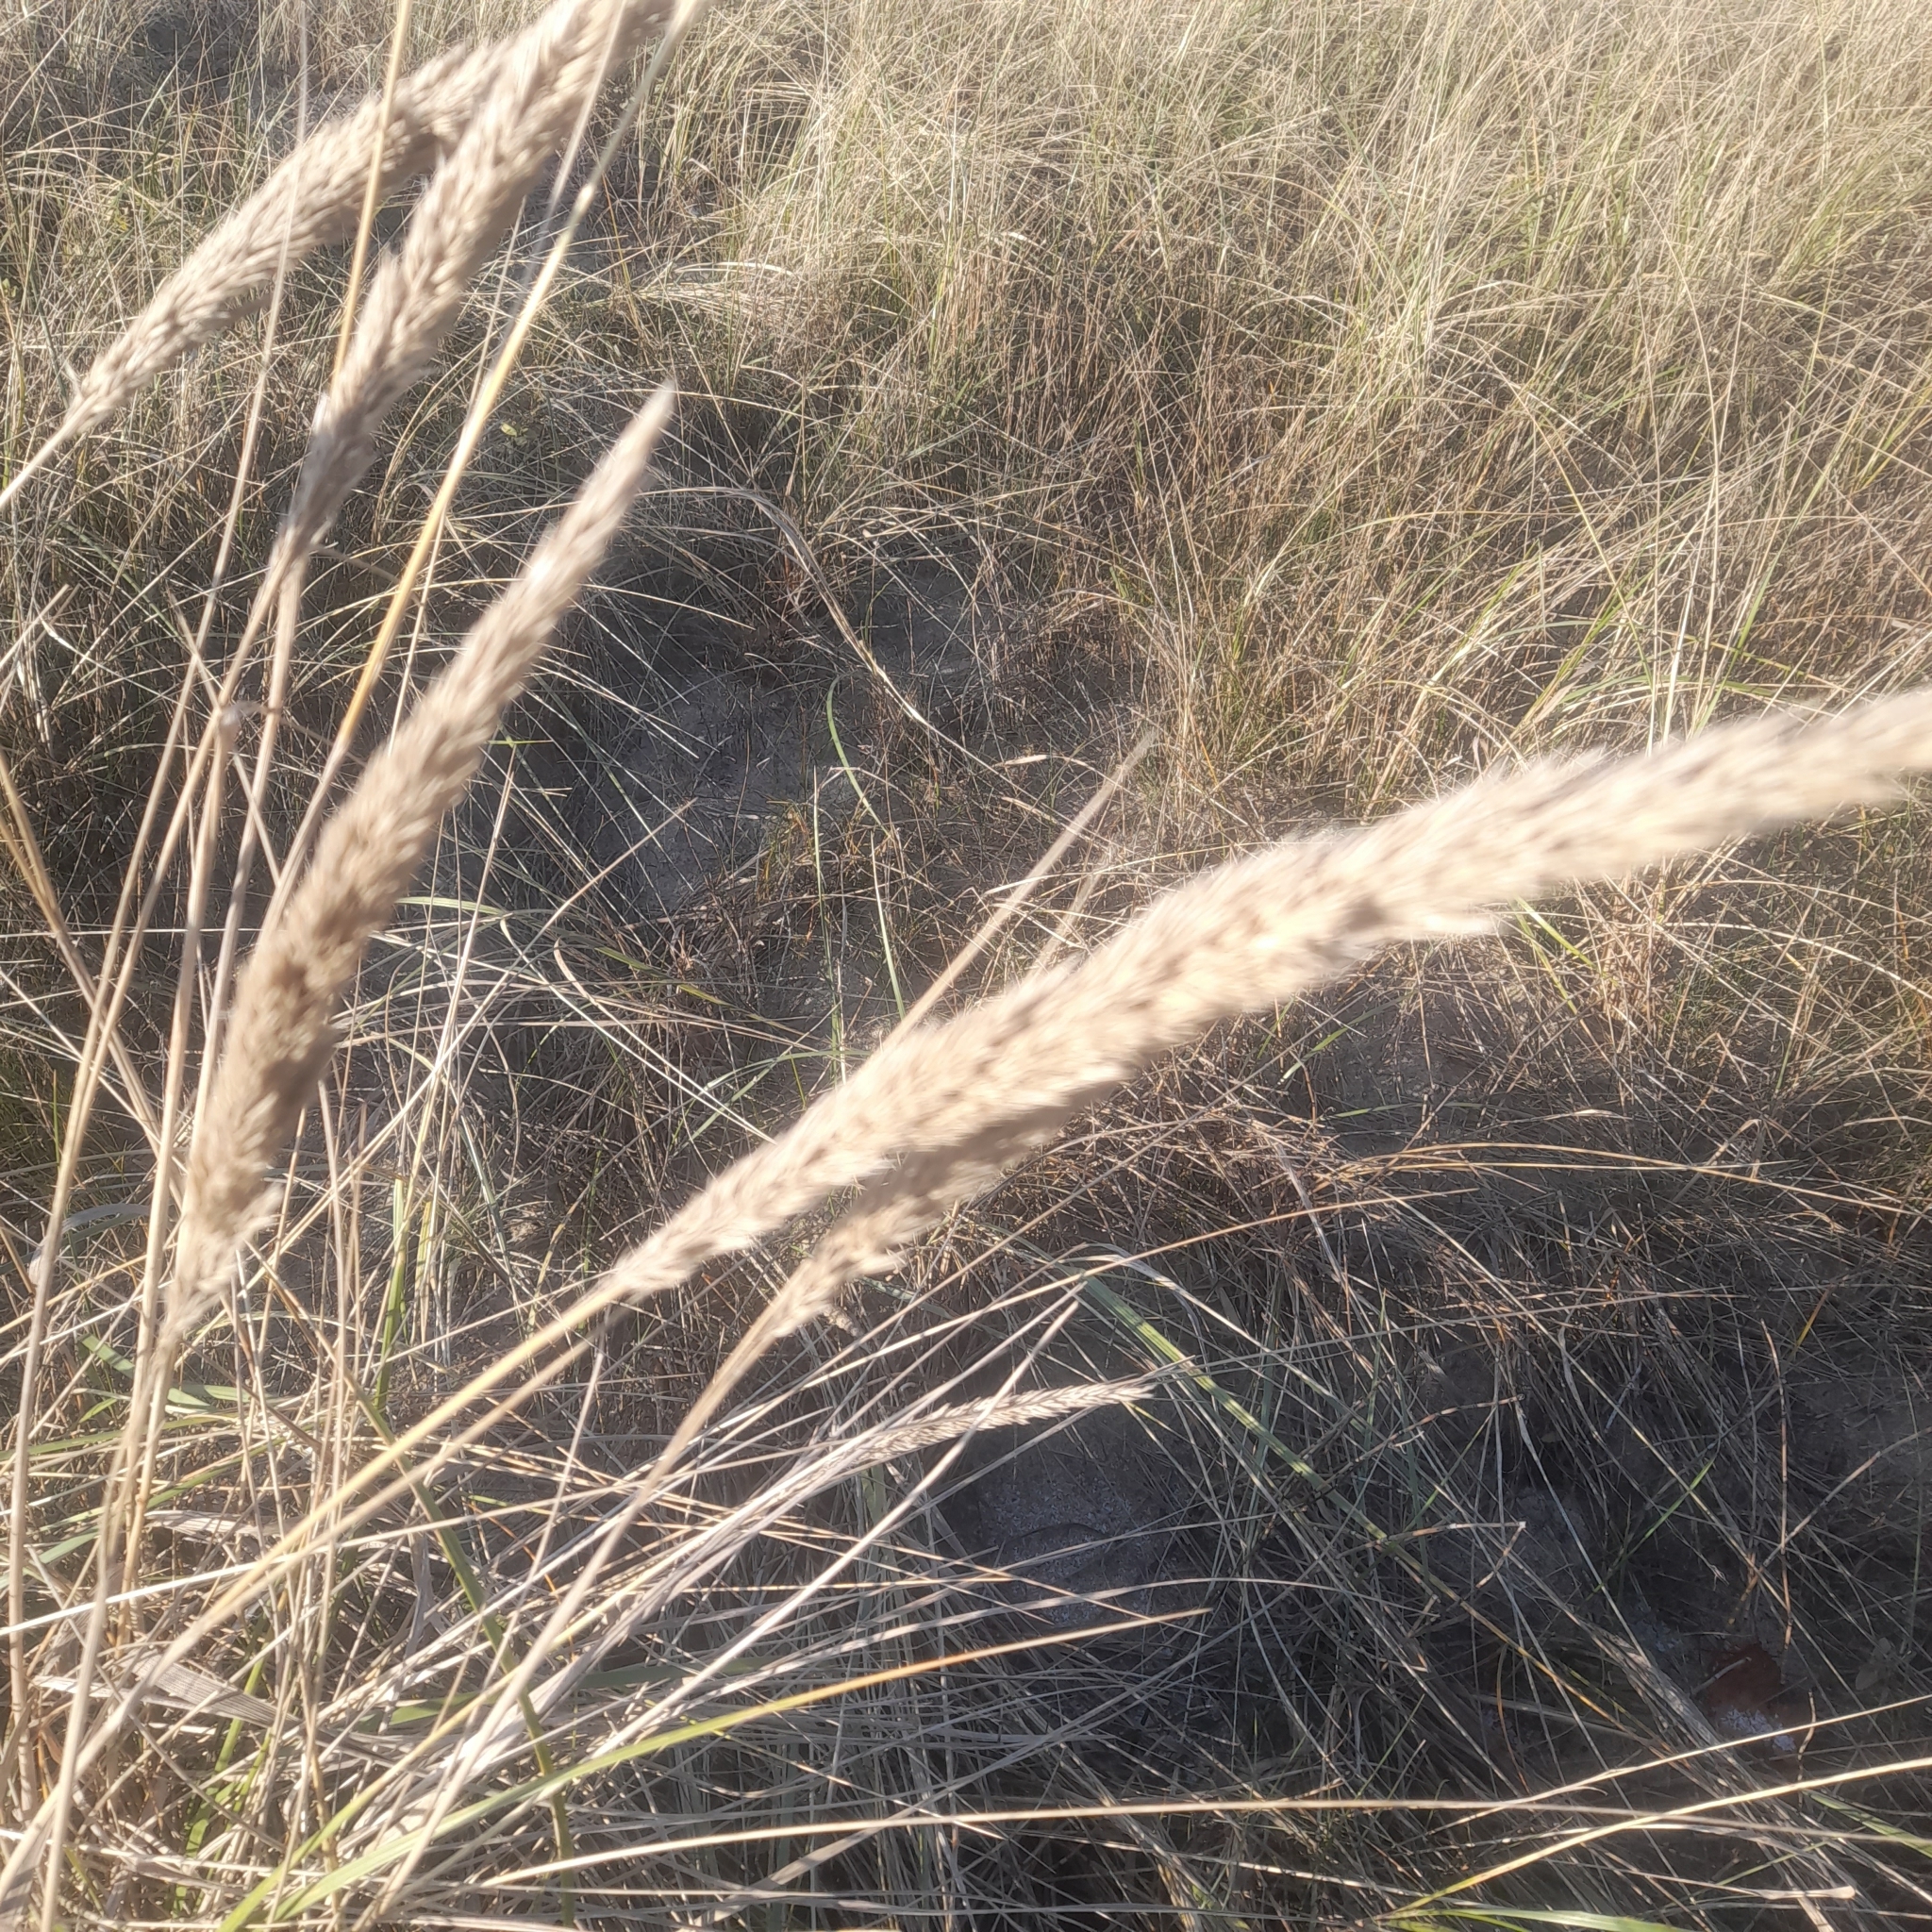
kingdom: Plantae
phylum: Tracheophyta
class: Liliopsida
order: Poales
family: Poaceae
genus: Calamagrostis
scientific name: Calamagrostis arenaria
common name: European beachgrass
